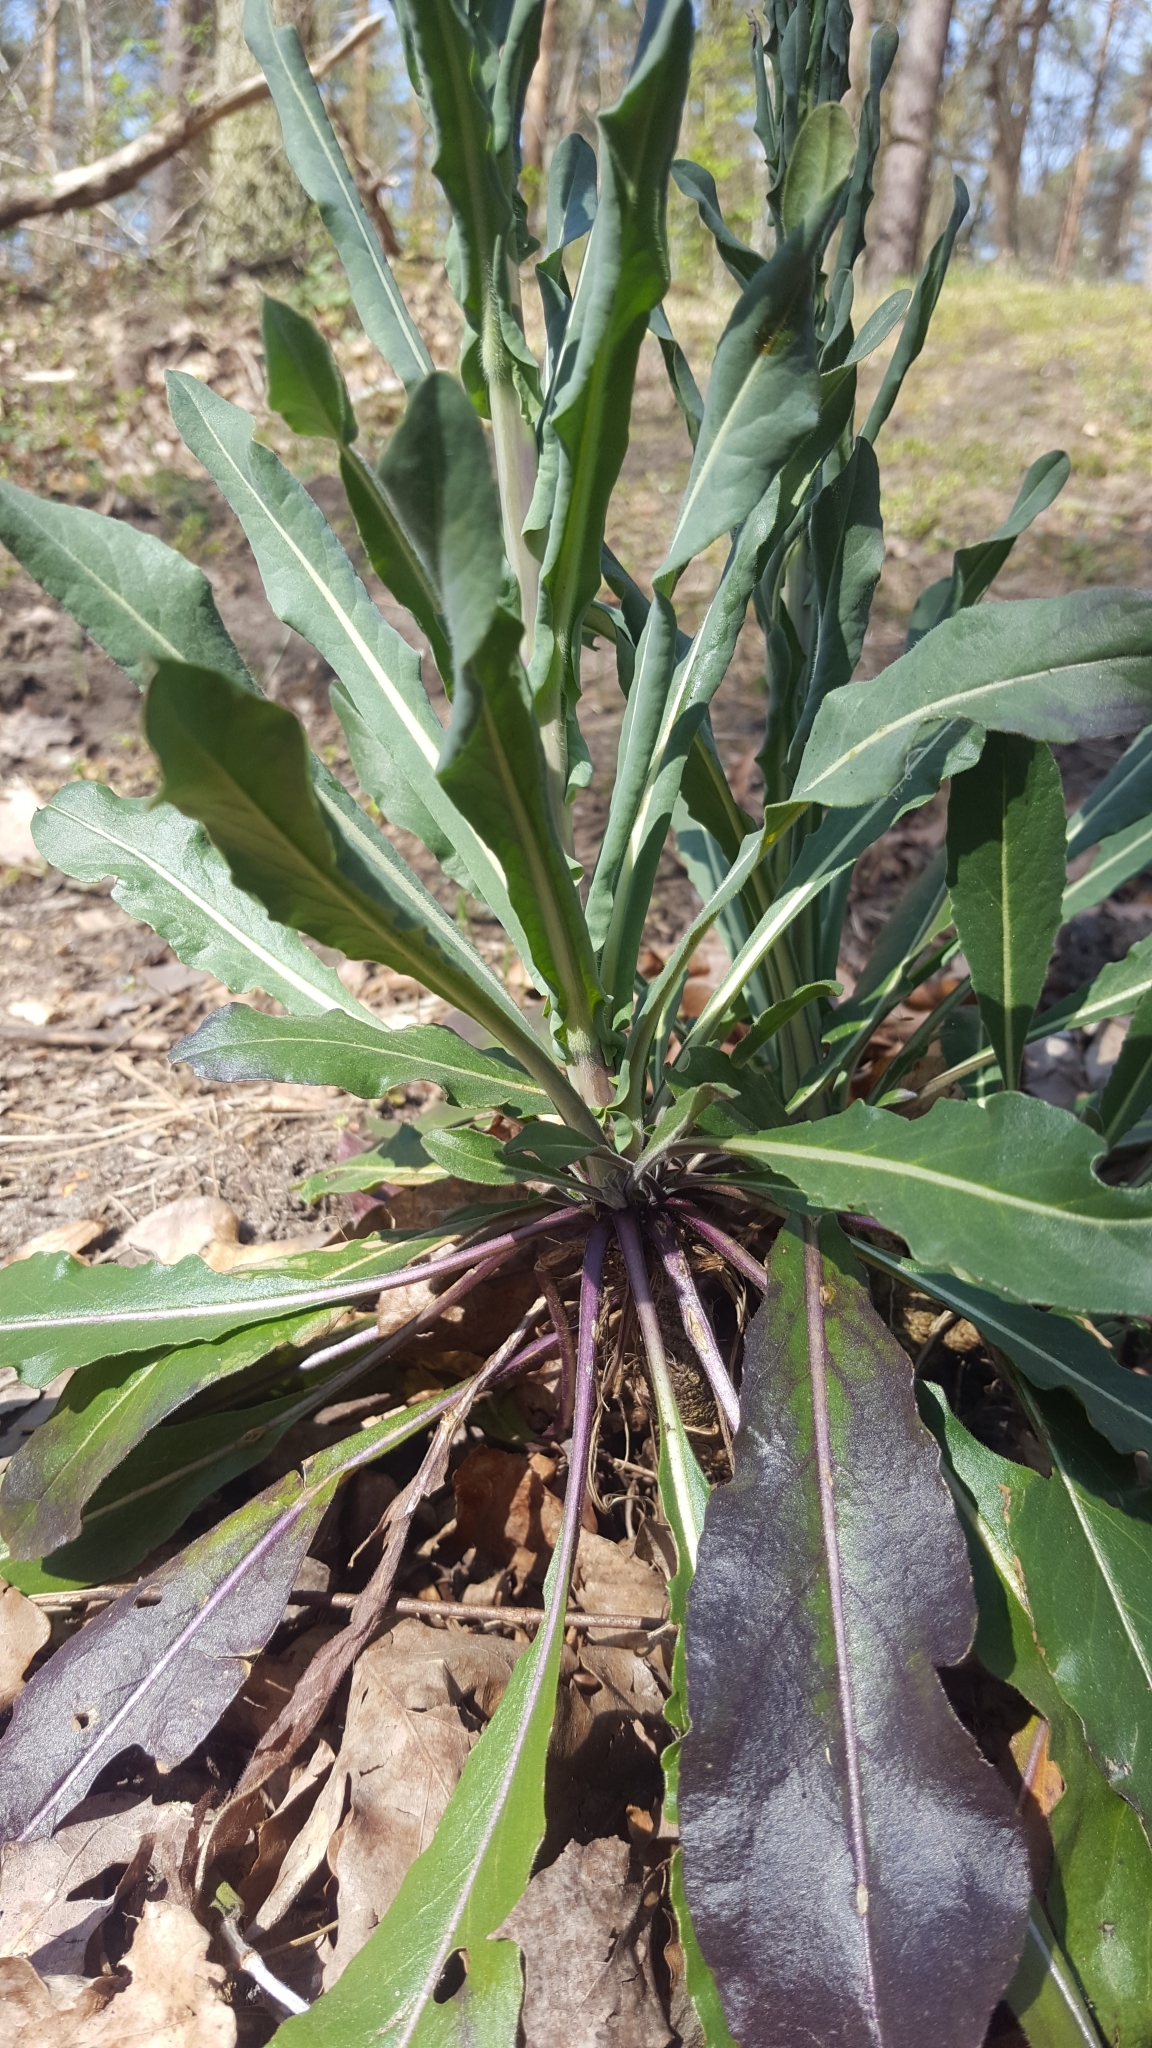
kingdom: Plantae
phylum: Tracheophyta
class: Magnoliopsida
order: Brassicales
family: Brassicaceae
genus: Isatis
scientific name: Isatis tinctoria
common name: Woad
